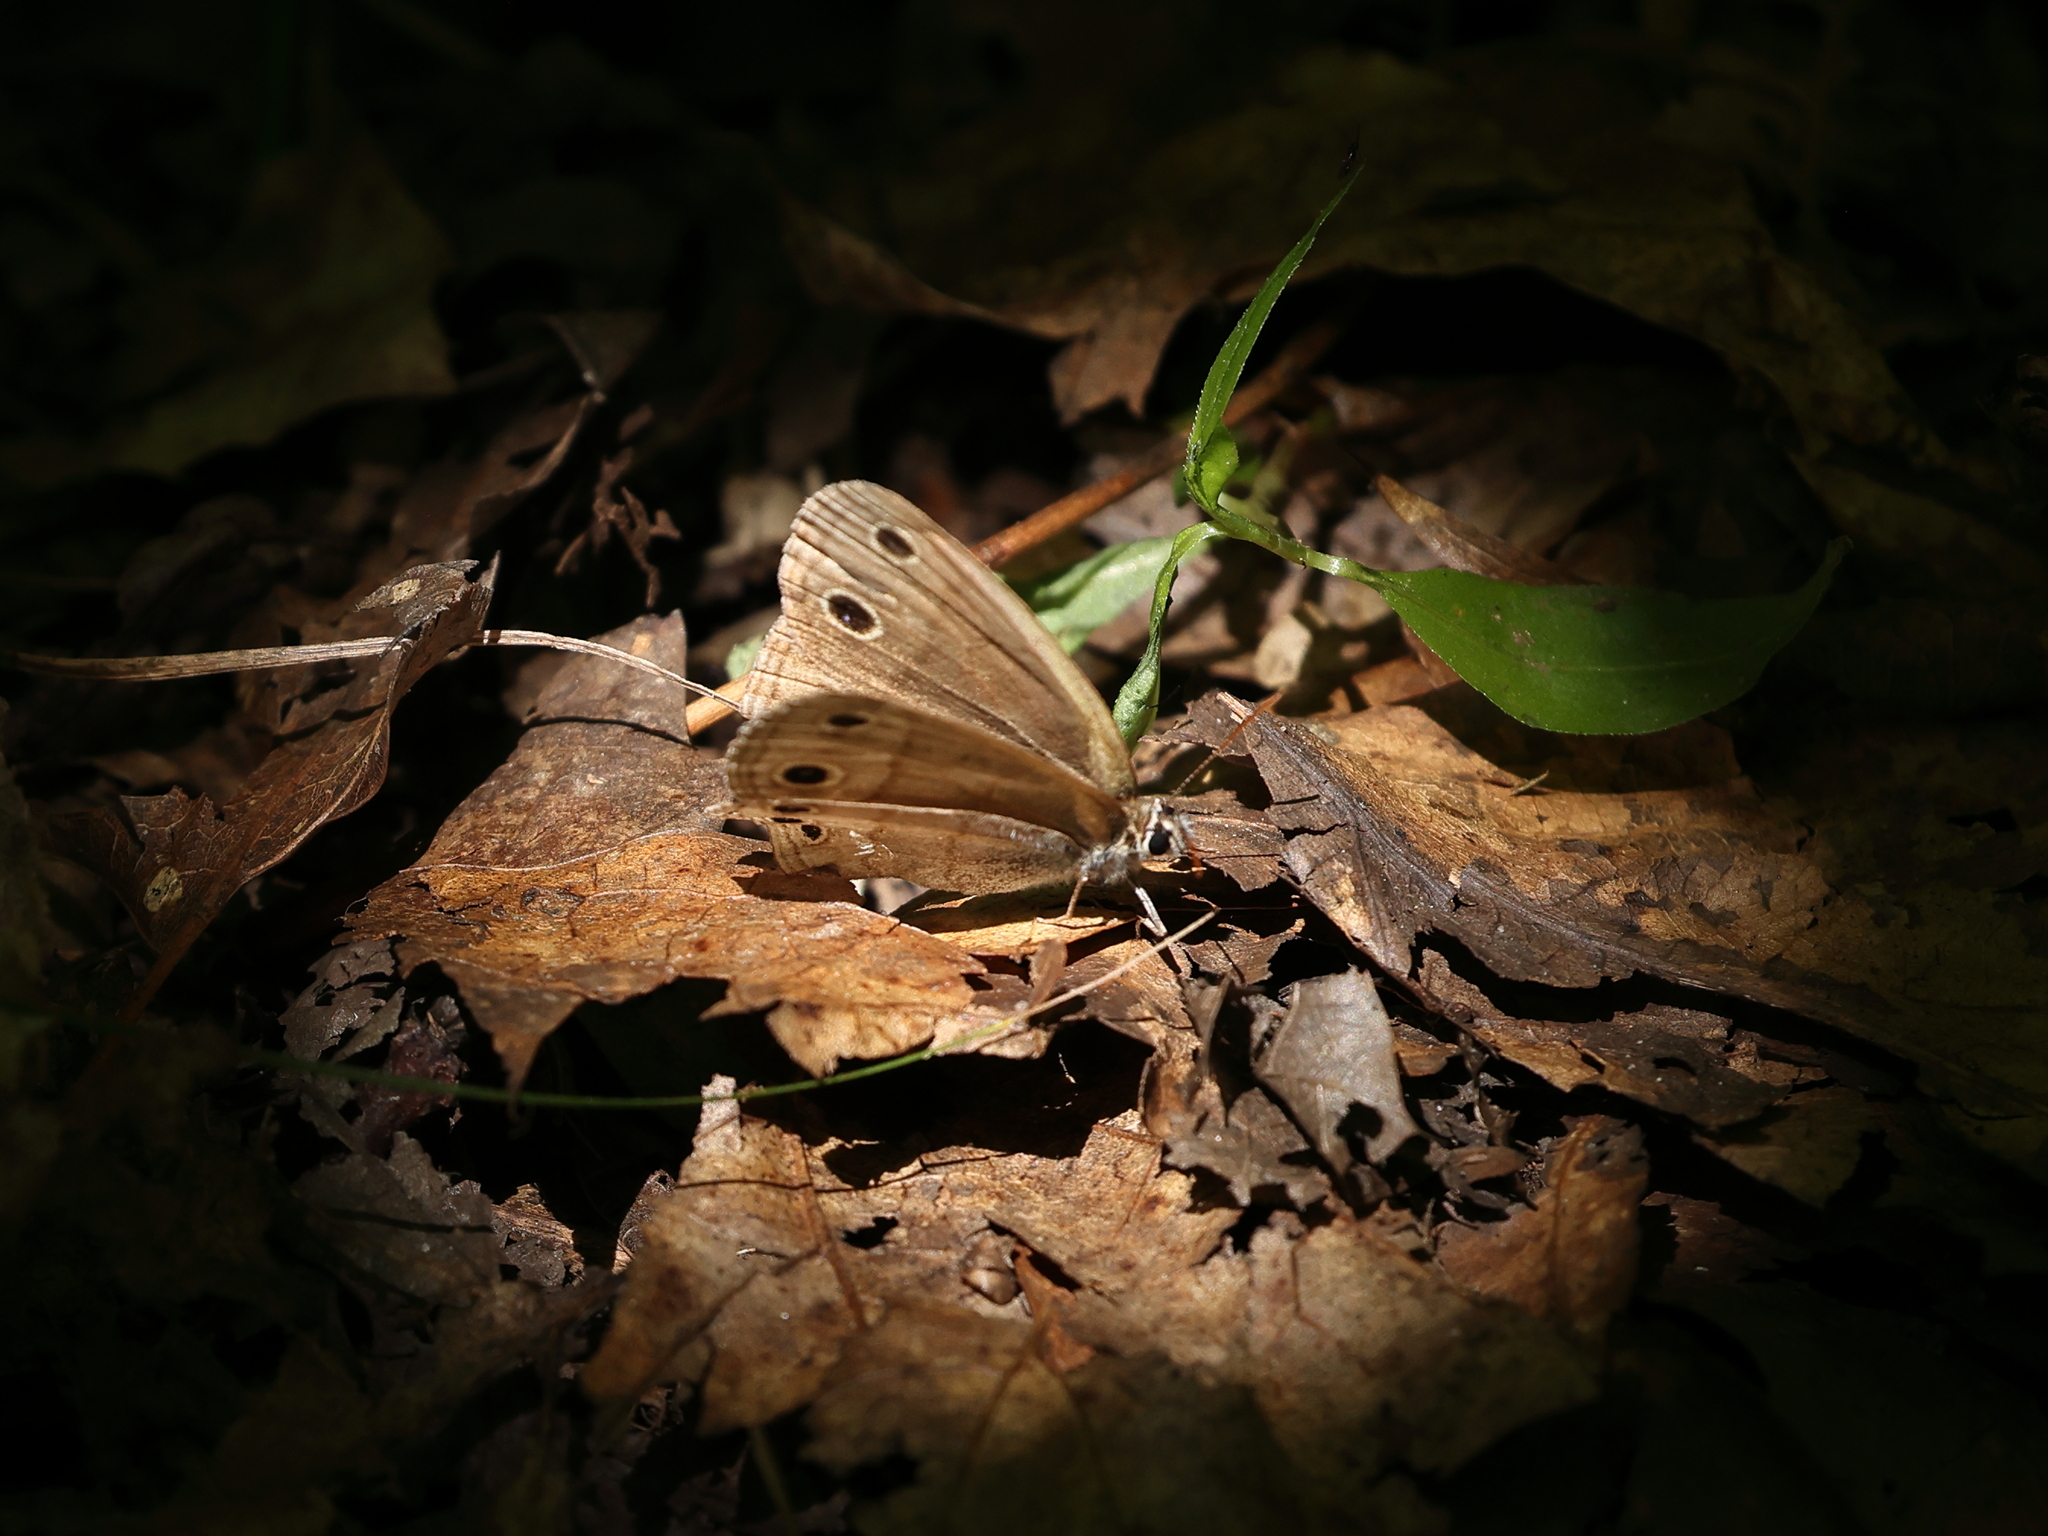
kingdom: Animalia
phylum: Arthropoda
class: Insecta
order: Lepidoptera
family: Nymphalidae
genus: Euptychia
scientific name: Euptychia cymela
